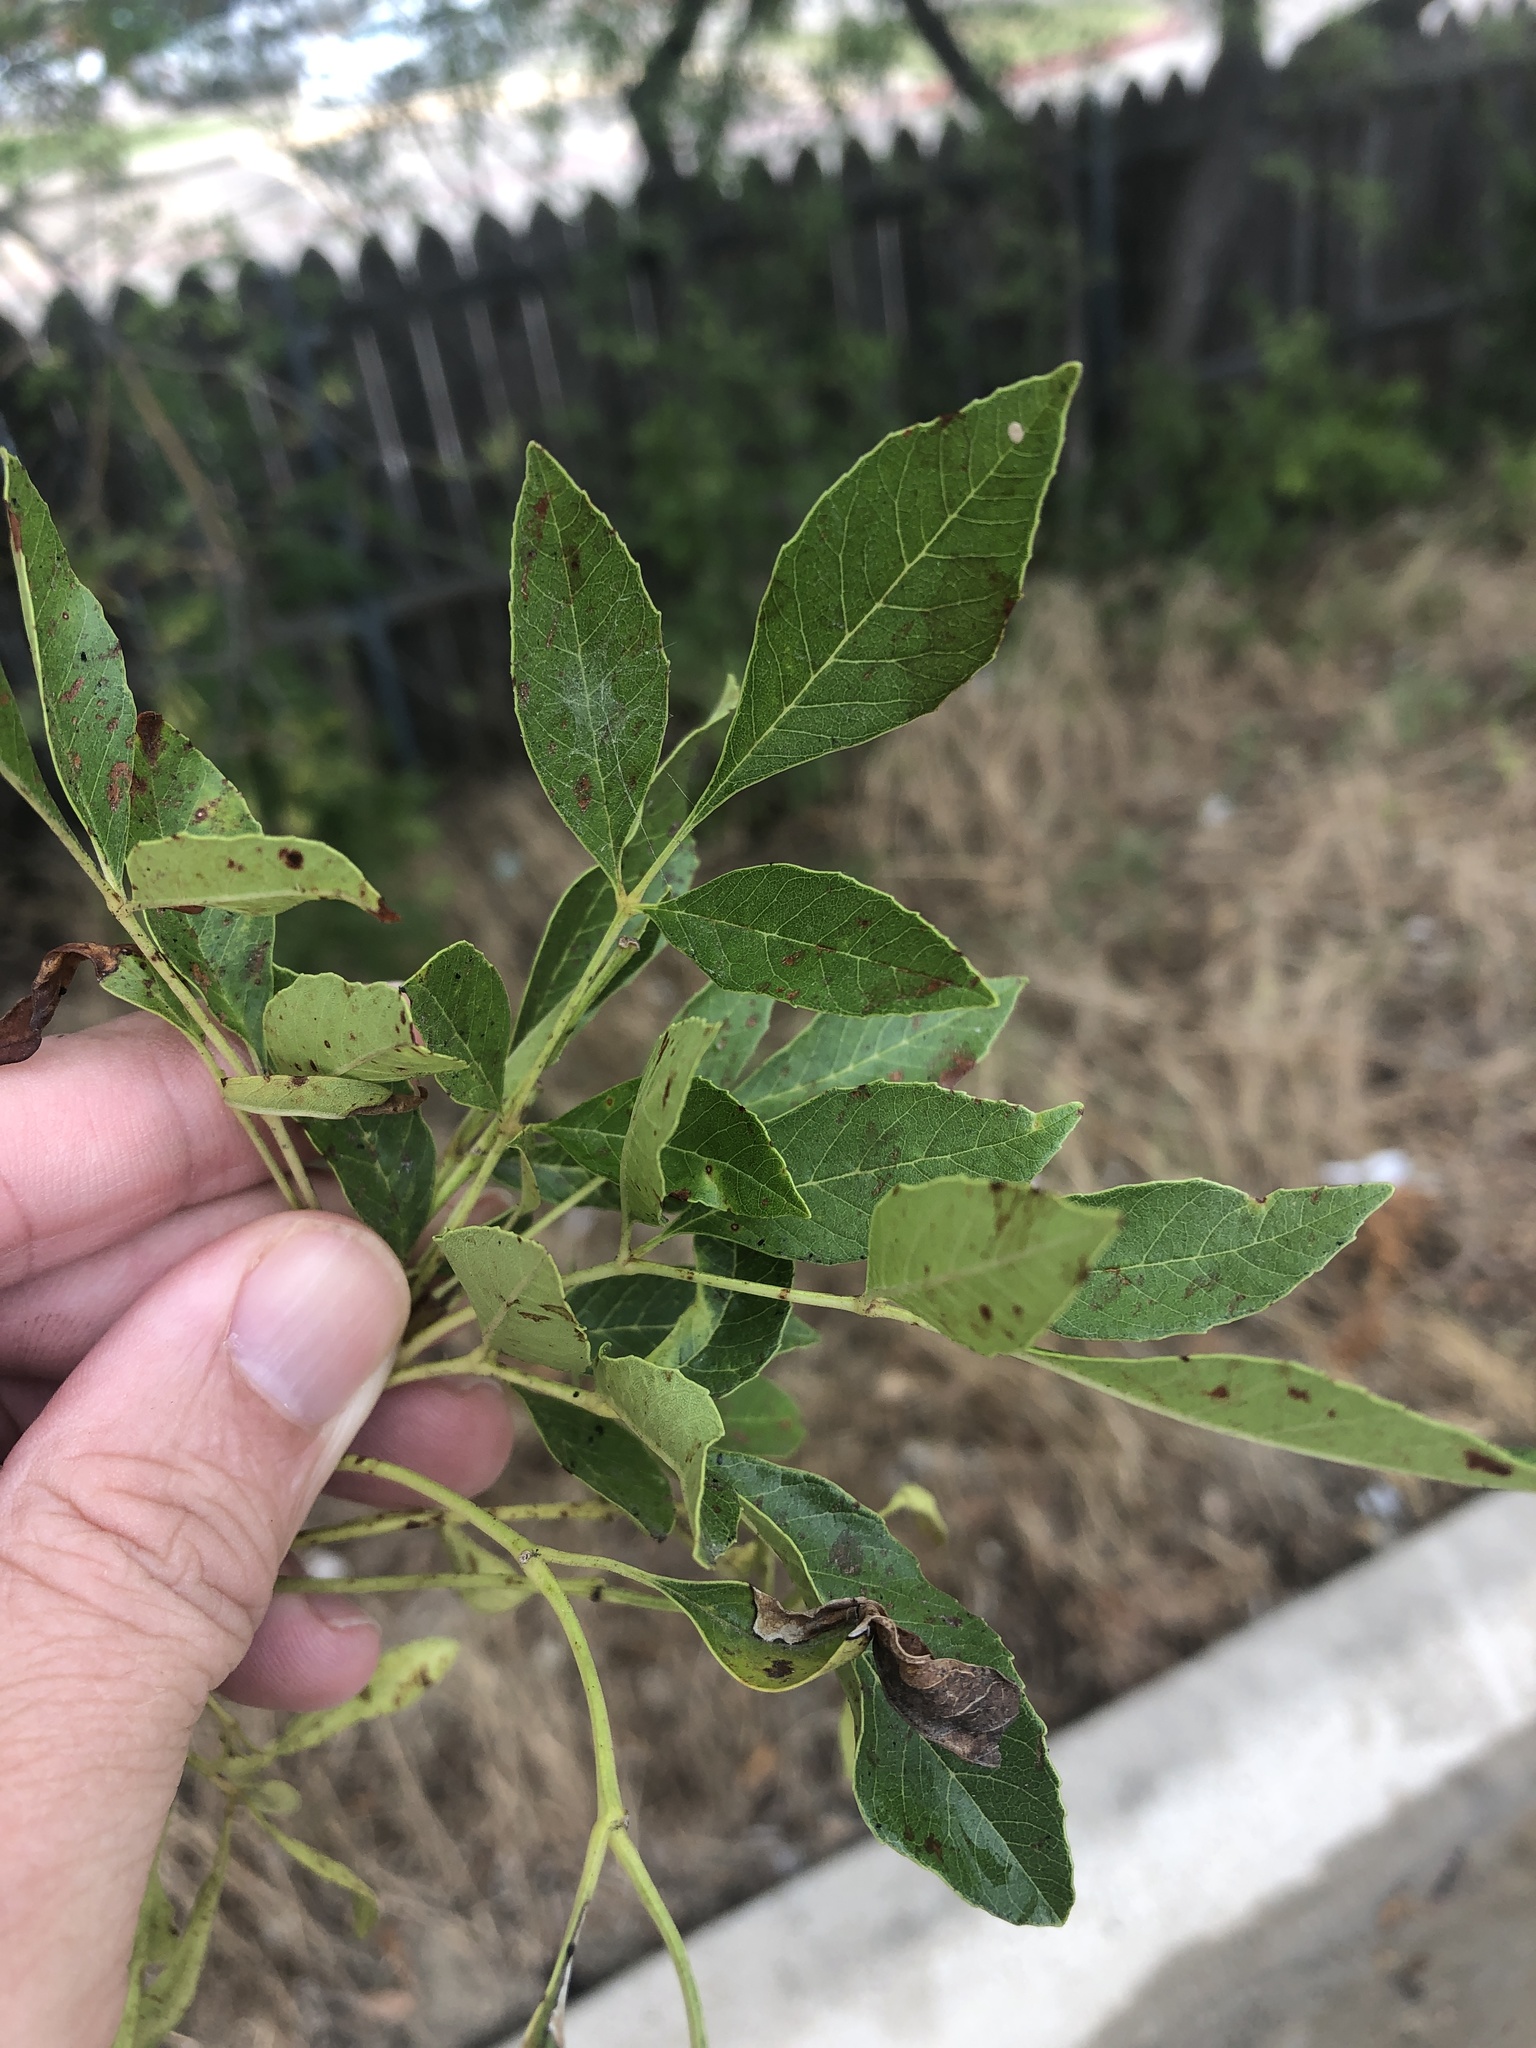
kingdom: Plantae
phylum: Tracheophyta
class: Magnoliopsida
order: Lamiales
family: Oleaceae
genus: Fraxinus
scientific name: Fraxinus pennsylvanica
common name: Green ash
